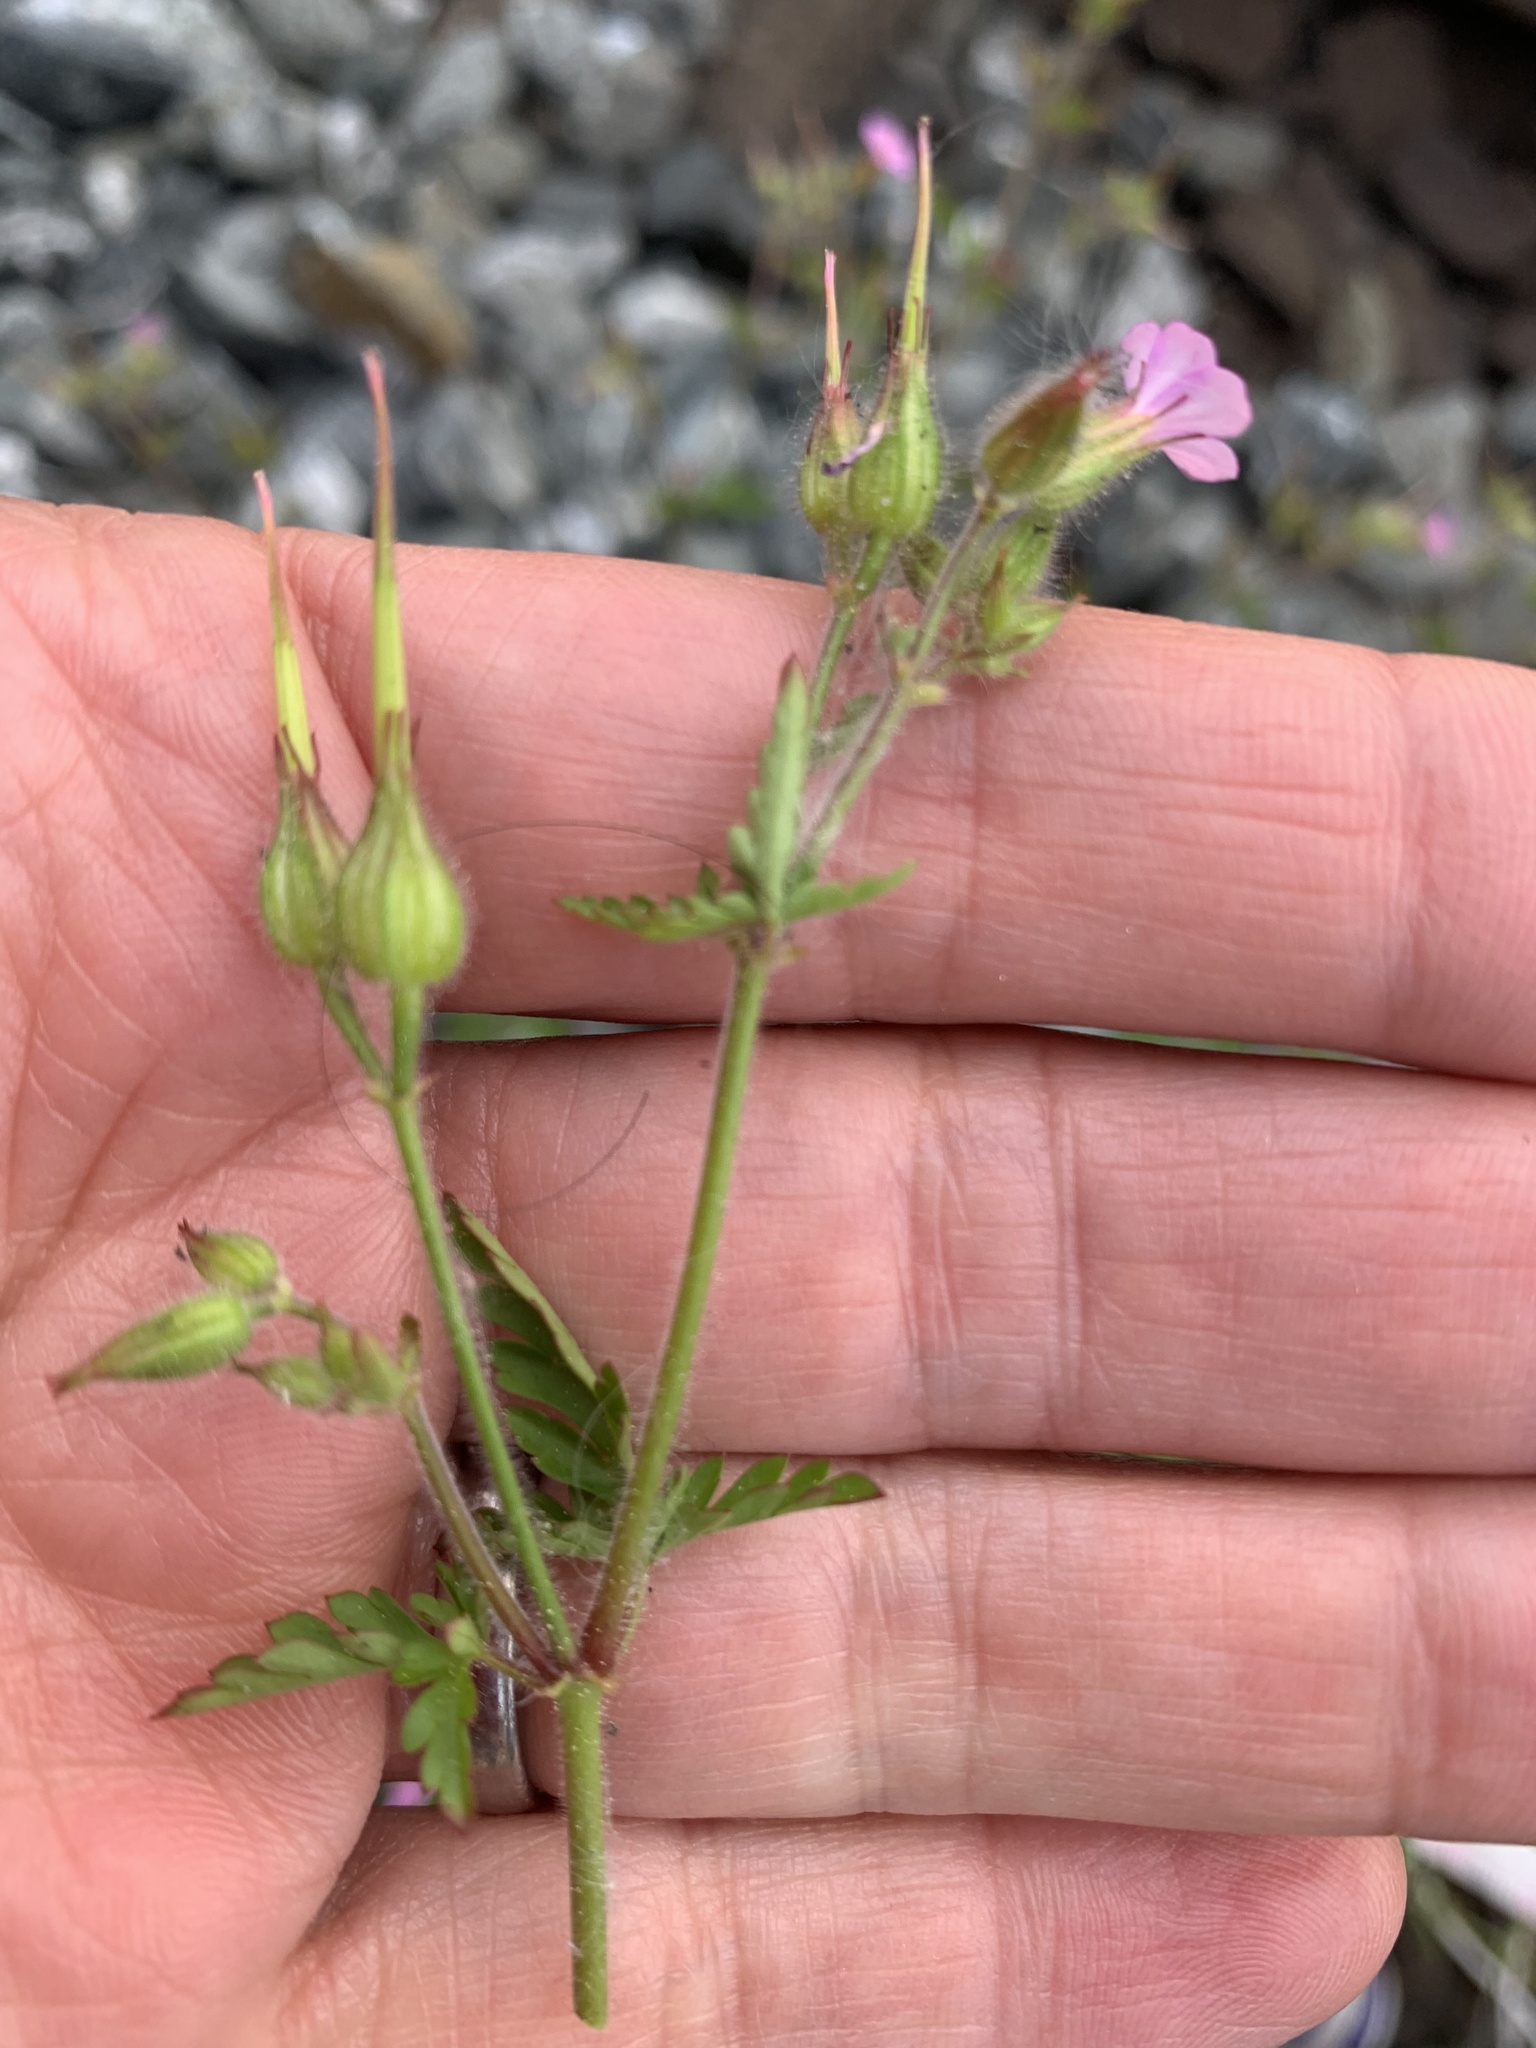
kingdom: Plantae
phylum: Tracheophyta
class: Magnoliopsida
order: Geraniales
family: Geraniaceae
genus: Geranium
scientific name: Geranium purpureum
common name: Little-robin
